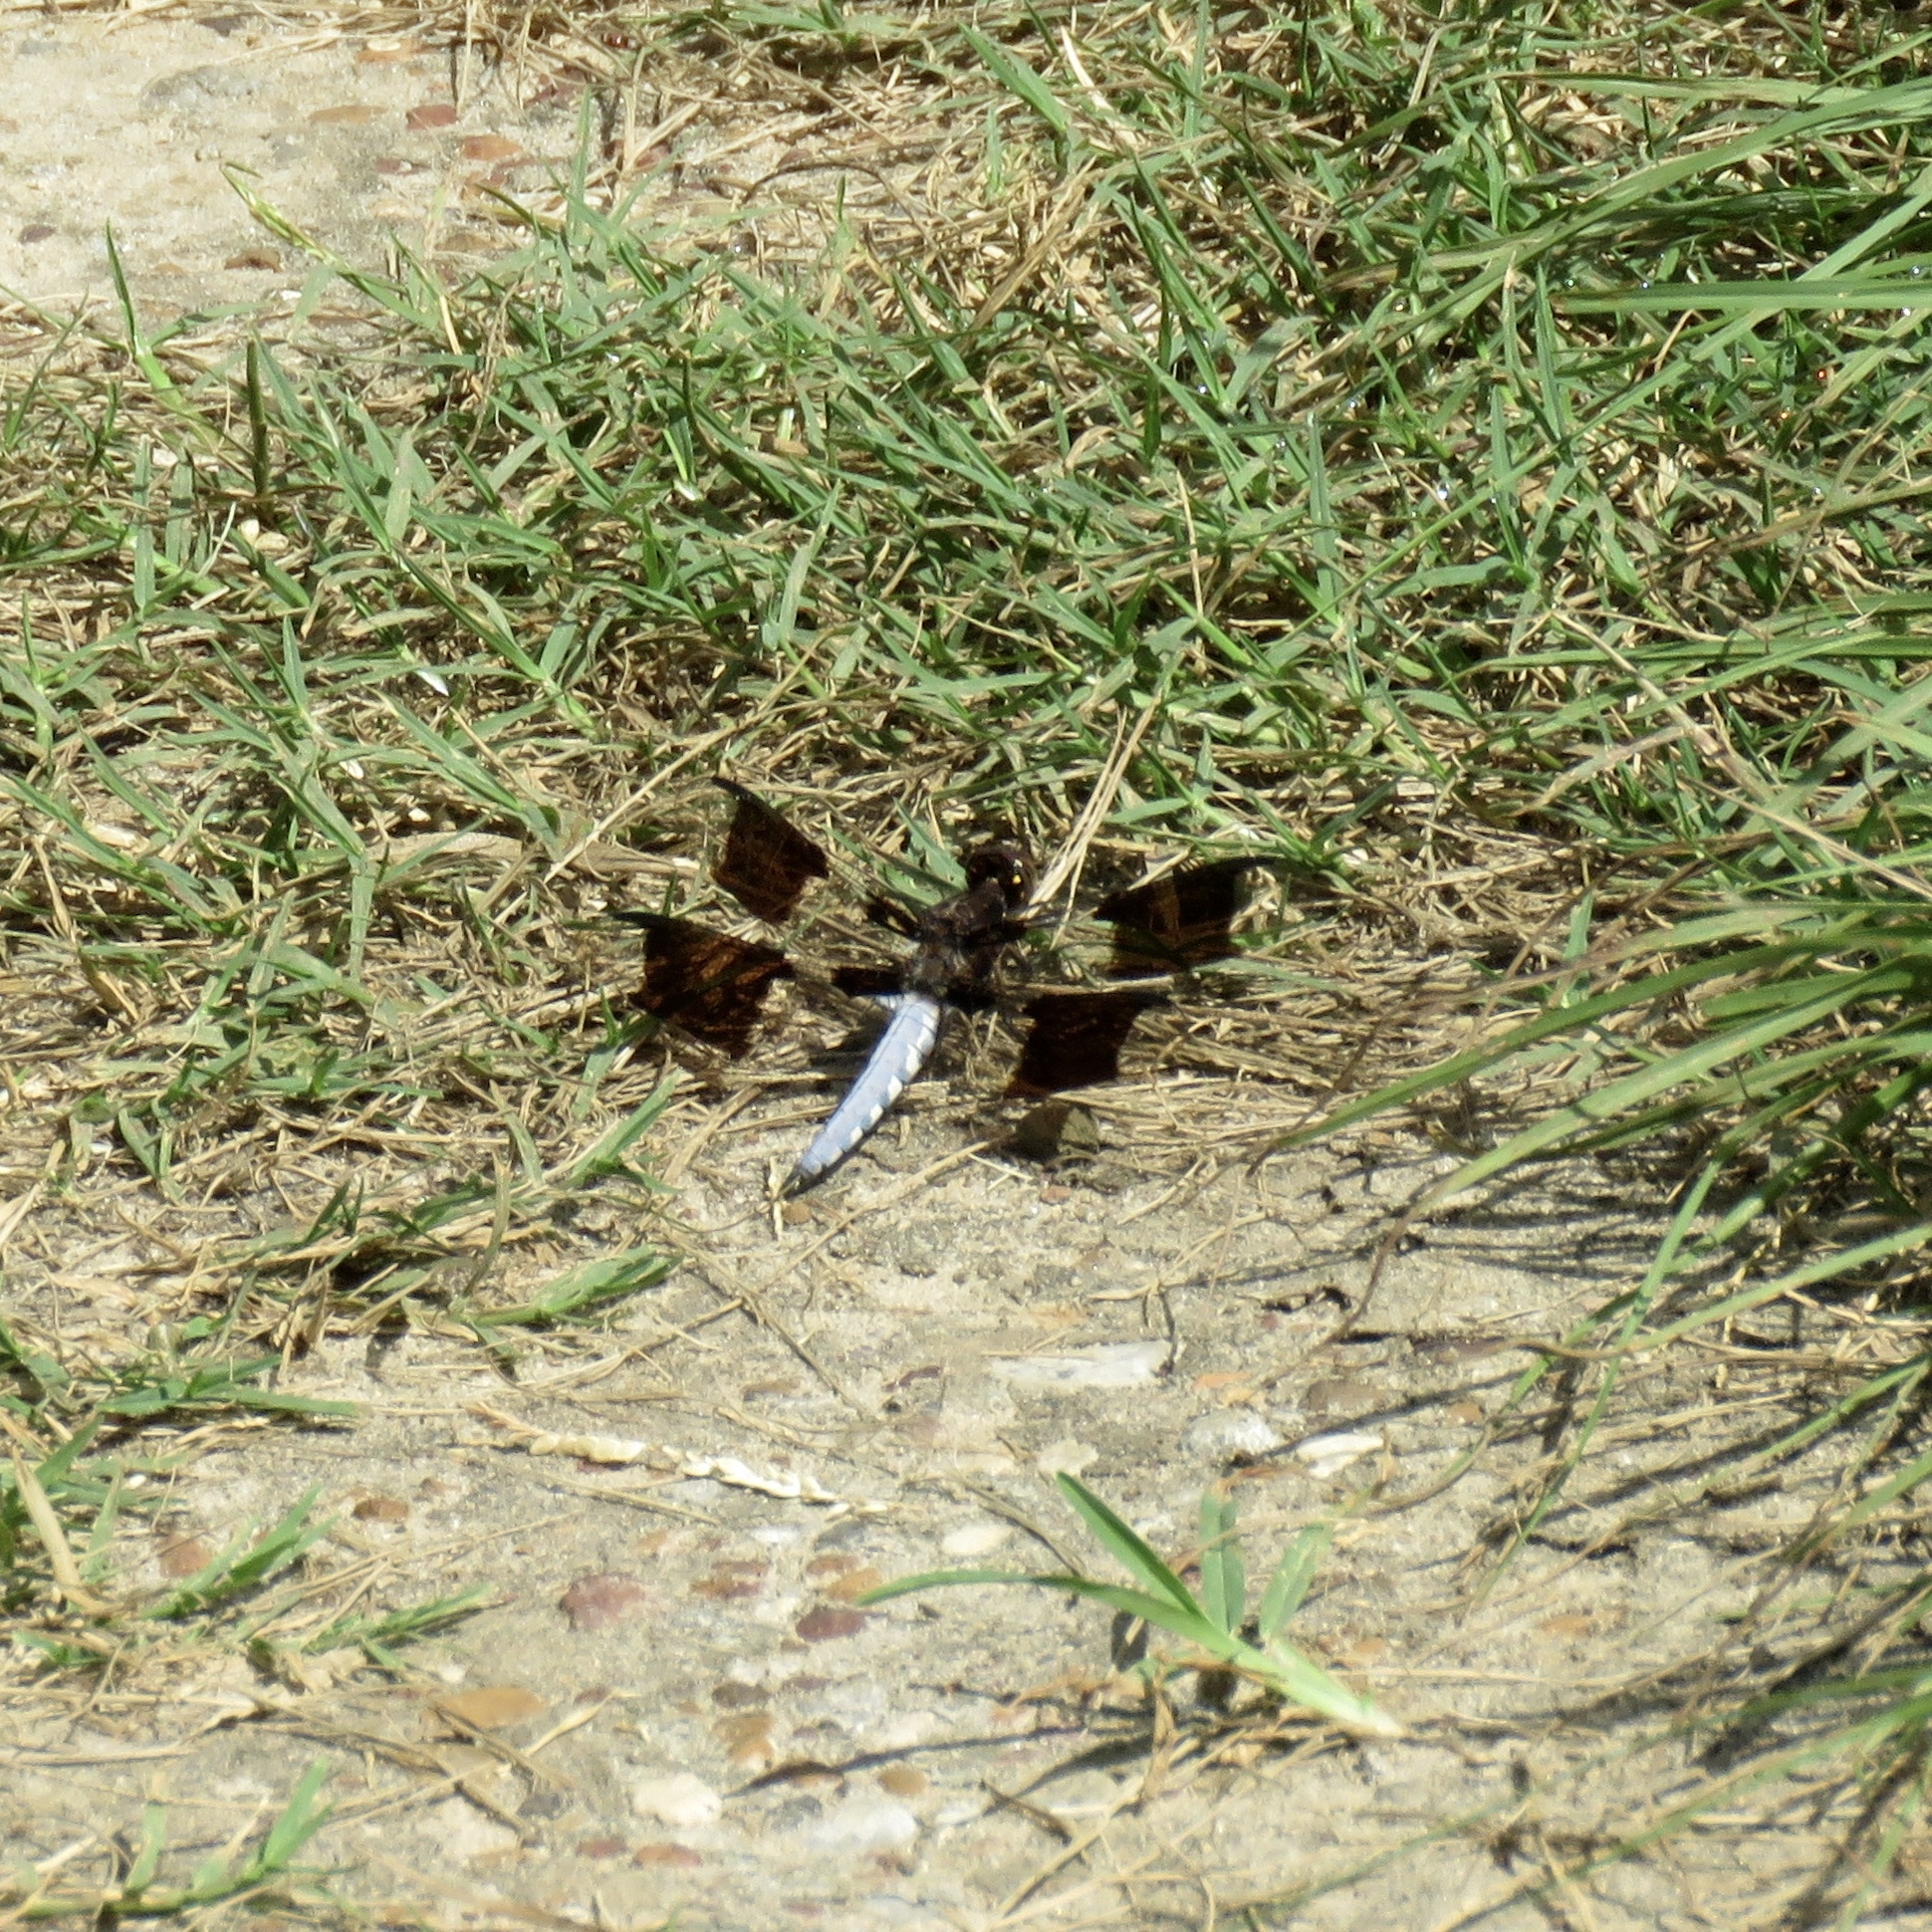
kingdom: Animalia
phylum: Arthropoda
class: Insecta
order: Odonata
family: Libellulidae
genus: Plathemis
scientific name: Plathemis lydia
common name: Common whitetail
